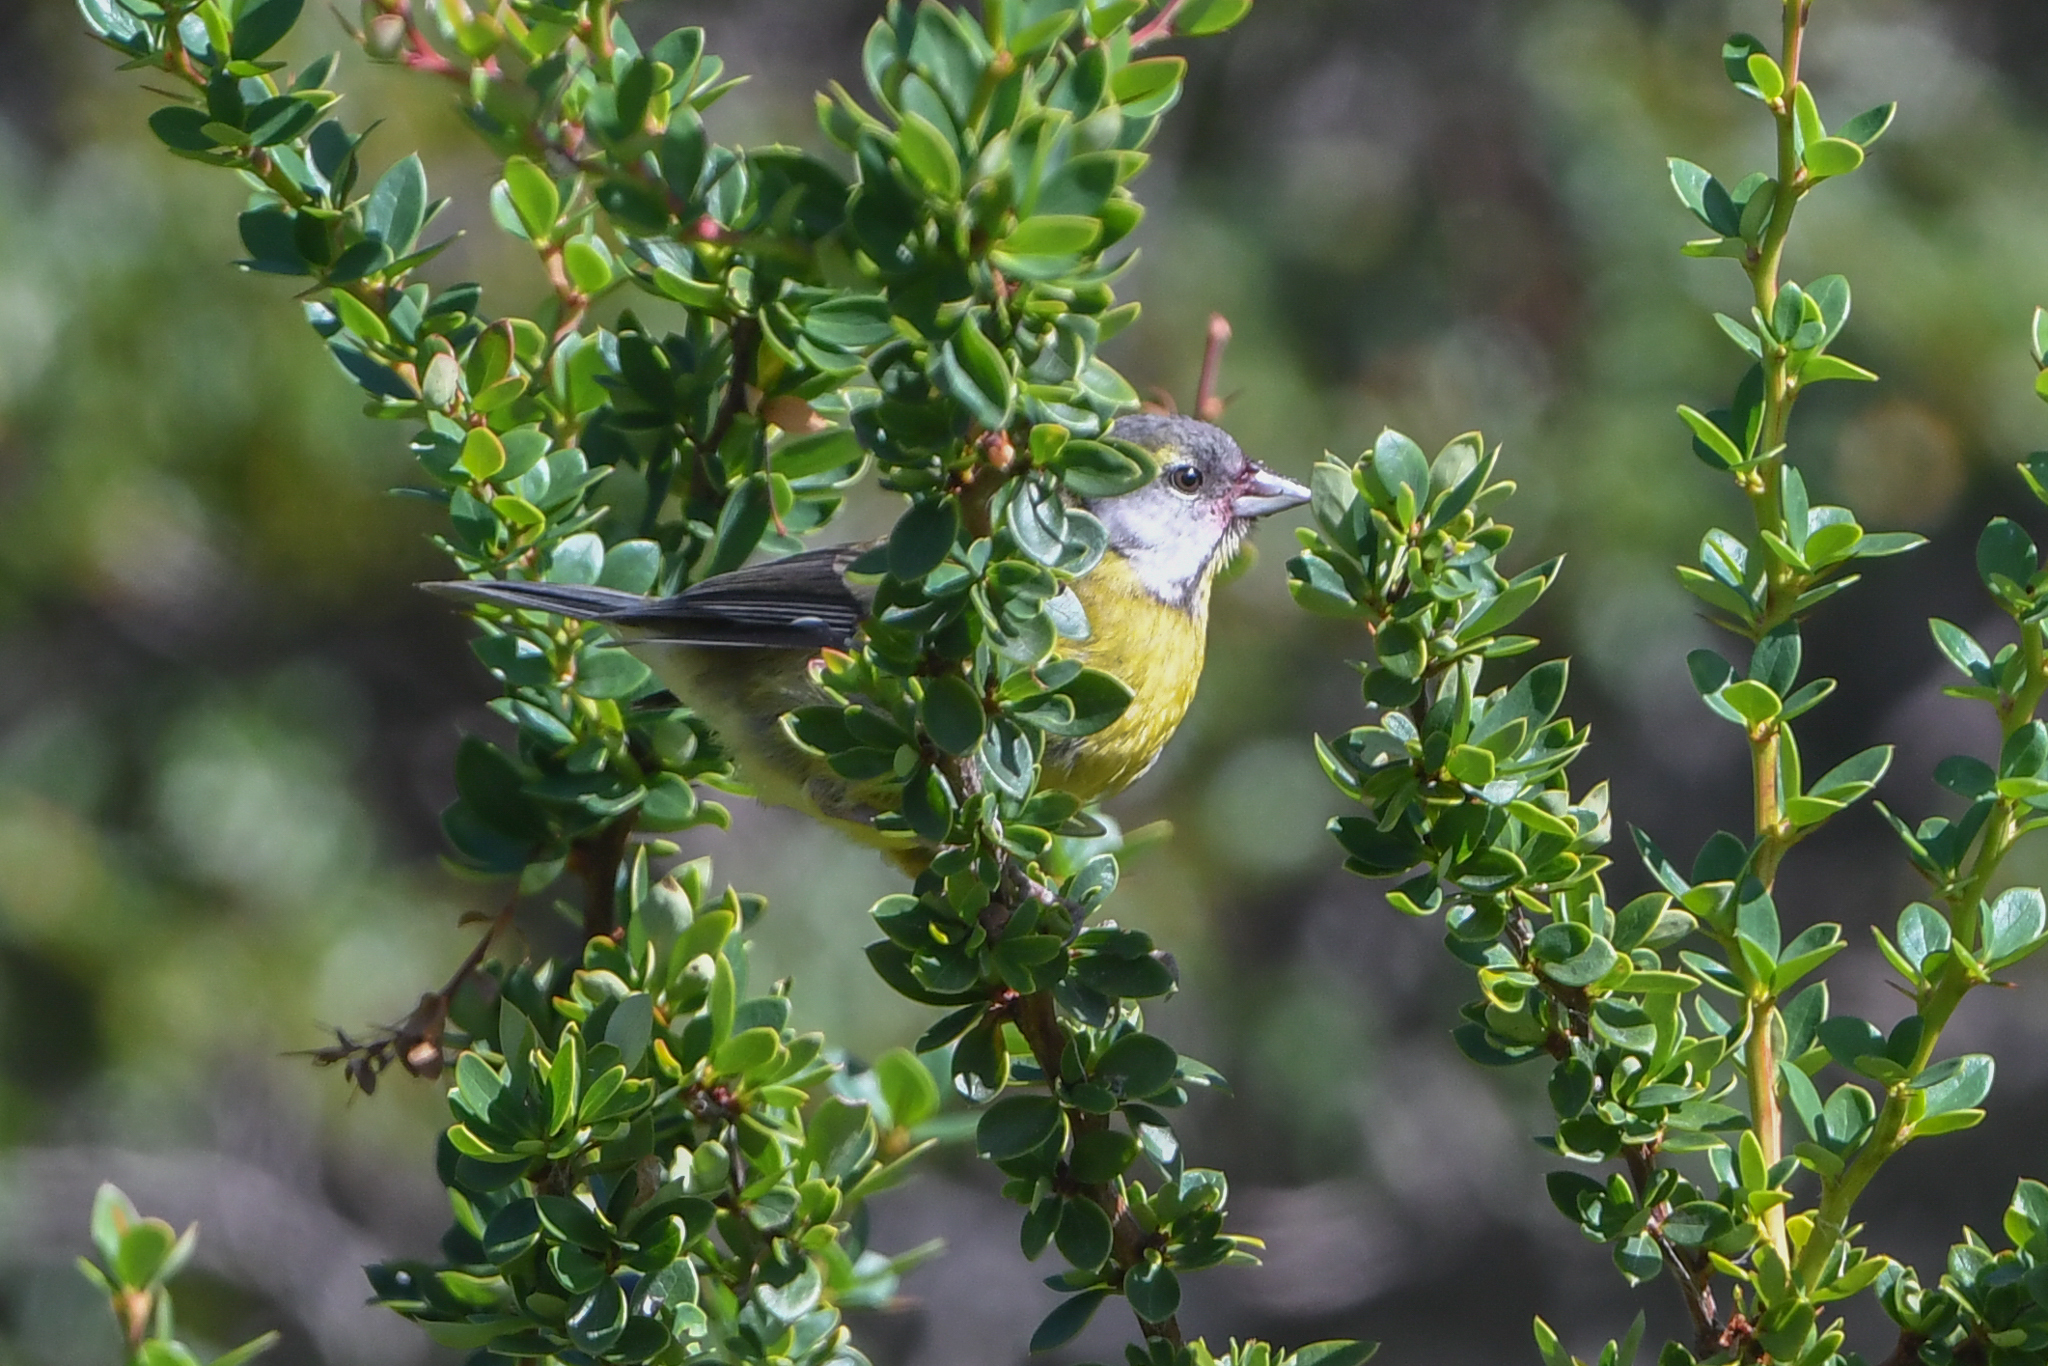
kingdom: Animalia
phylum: Chordata
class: Aves
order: Passeriformes
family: Thraupidae
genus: Phrygilus
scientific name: Phrygilus patagonicus
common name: Patagonian sierra finch
